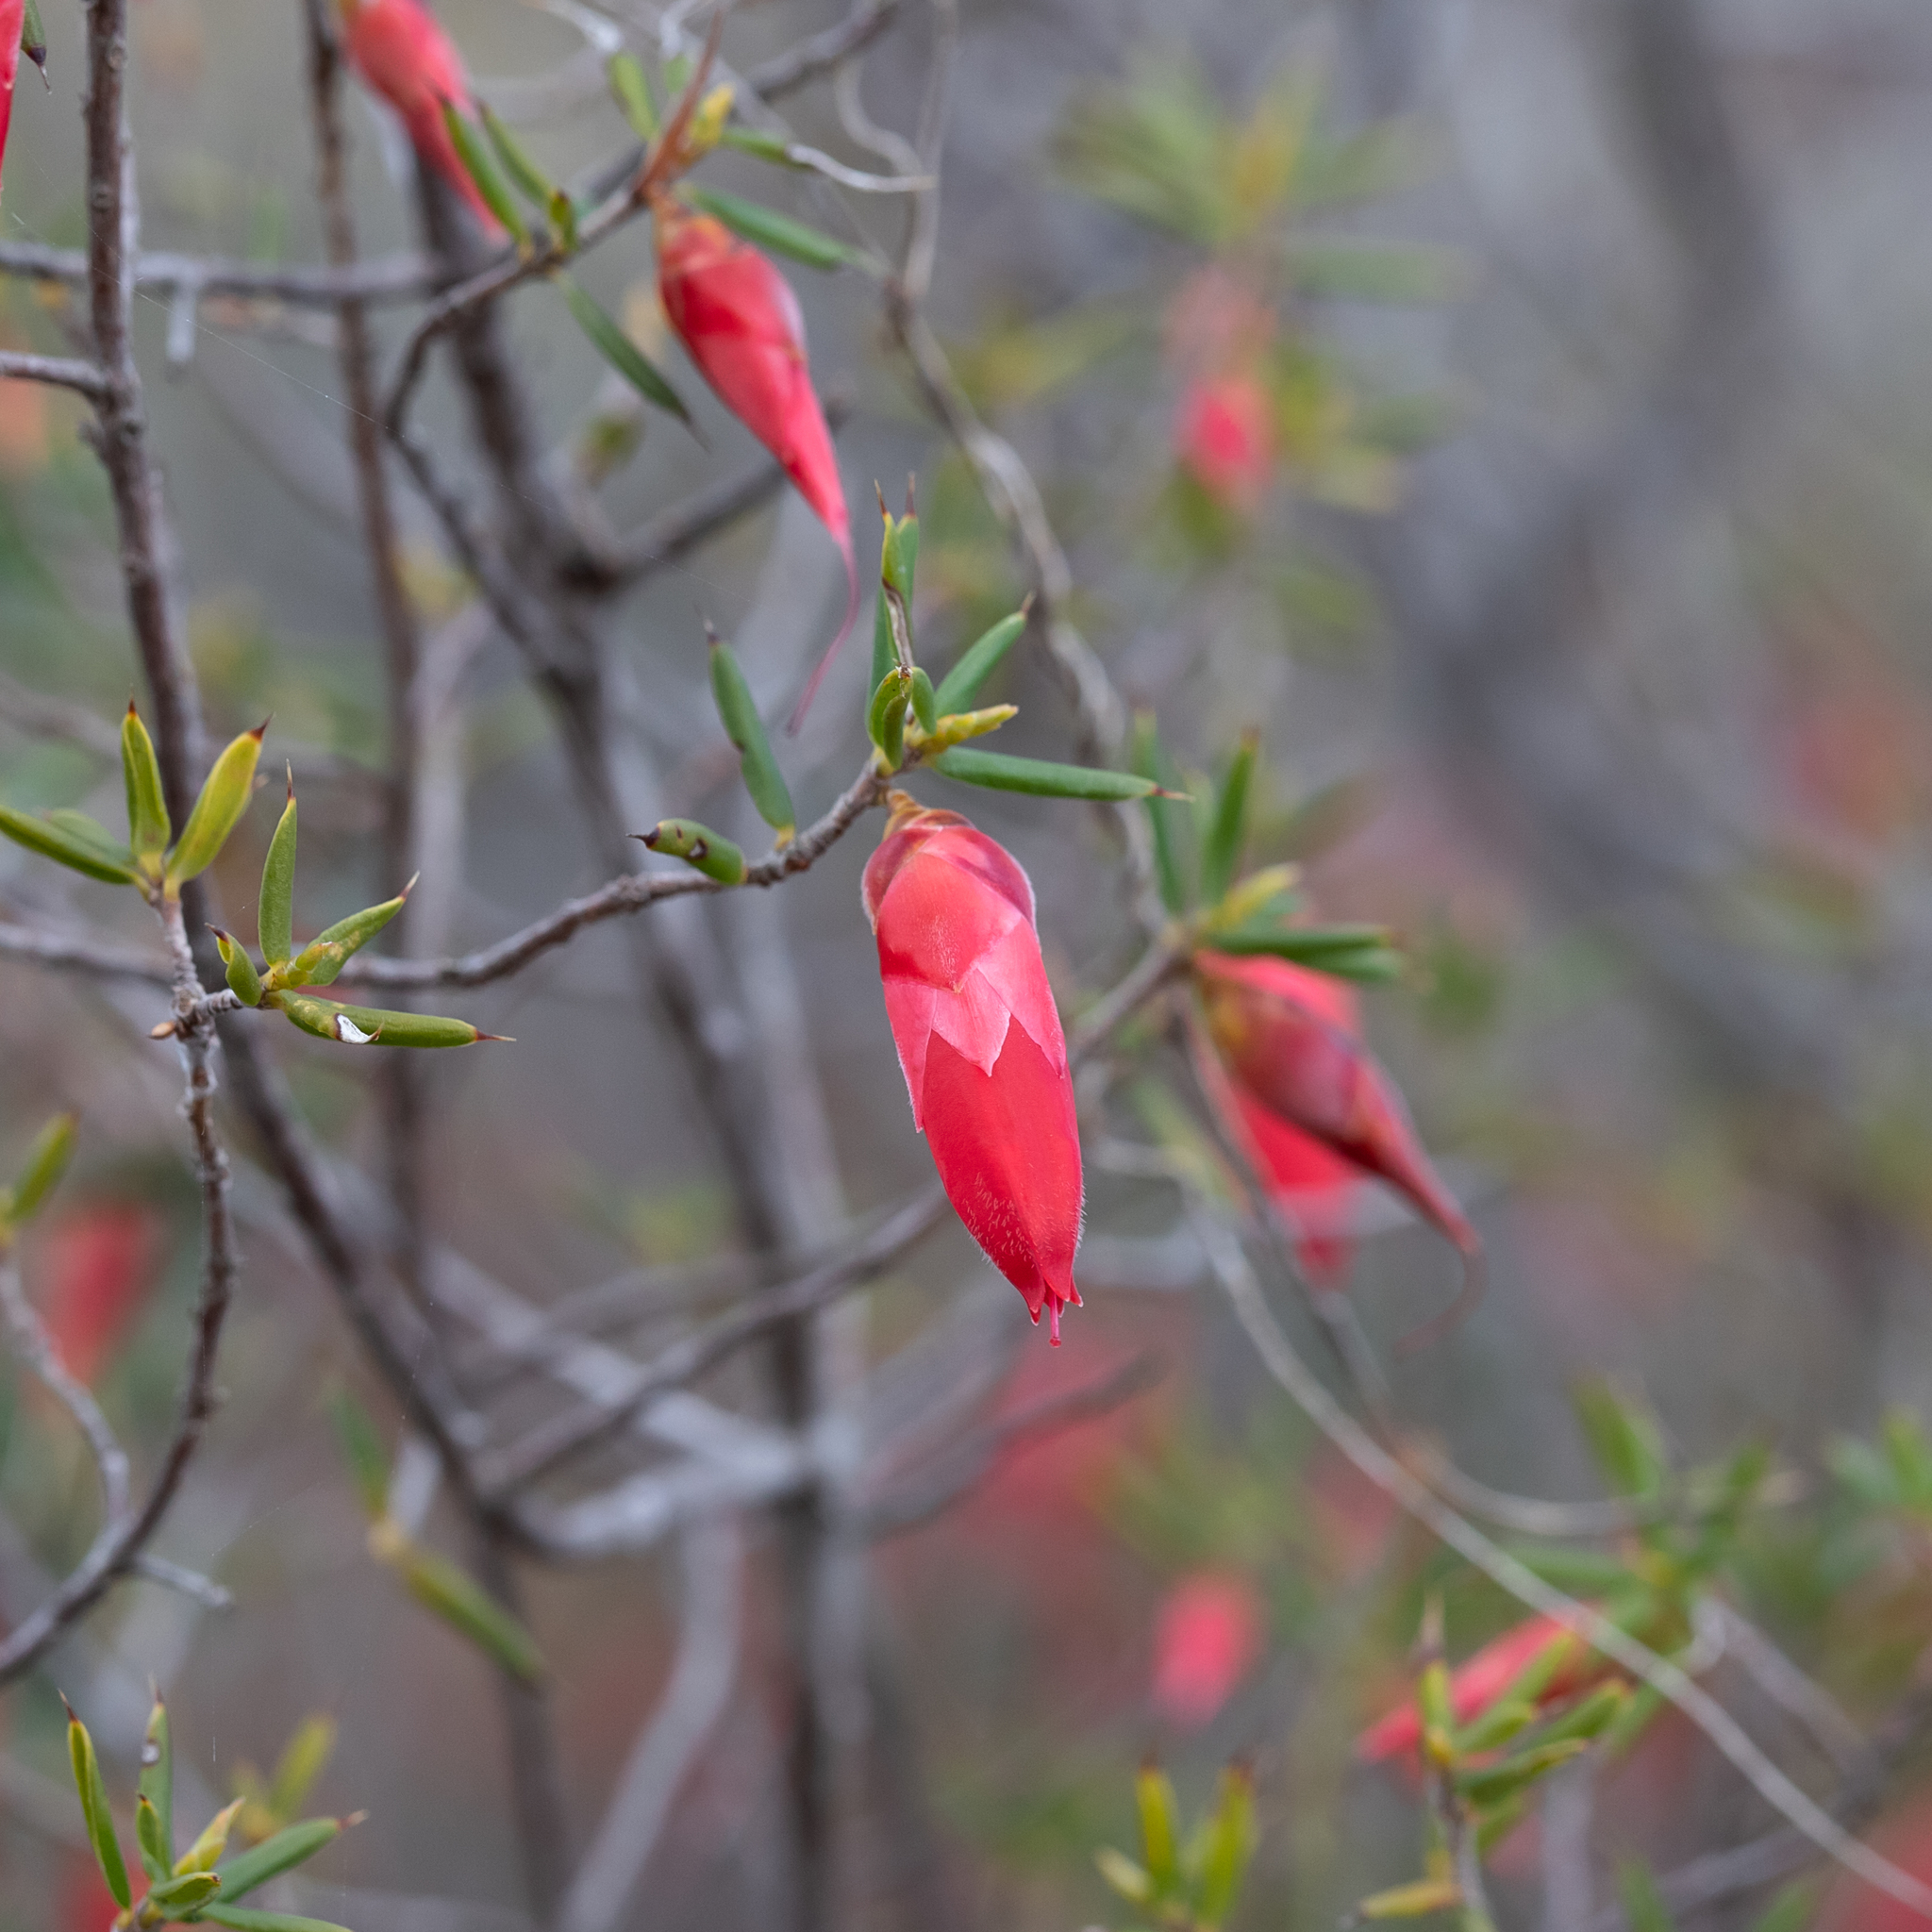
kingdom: Plantae
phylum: Tracheophyta
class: Magnoliopsida
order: Ericales
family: Ericaceae
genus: Stenanthera
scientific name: Stenanthera conostephioides
